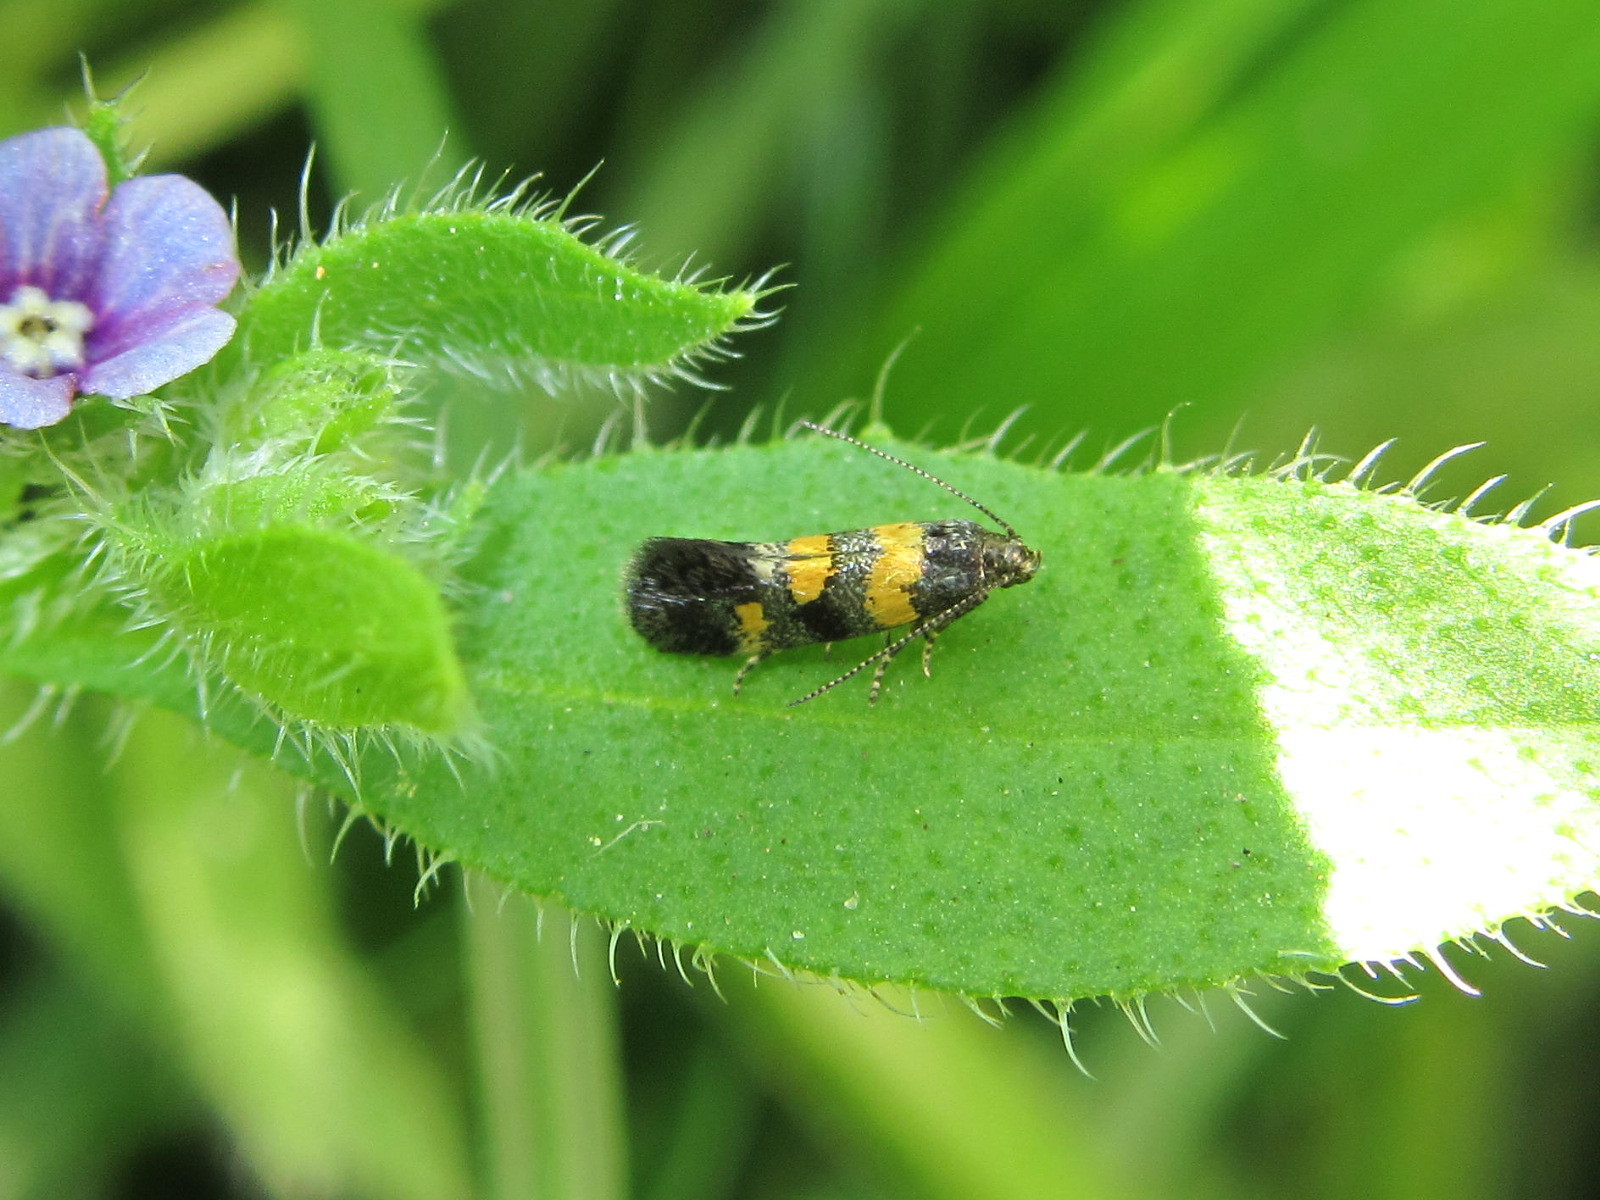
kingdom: Animalia
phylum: Arthropoda
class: Insecta
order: Lepidoptera
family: Gelechiidae
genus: Chrysoesthia
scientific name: Chrysoesthia sexguttella
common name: Moth
